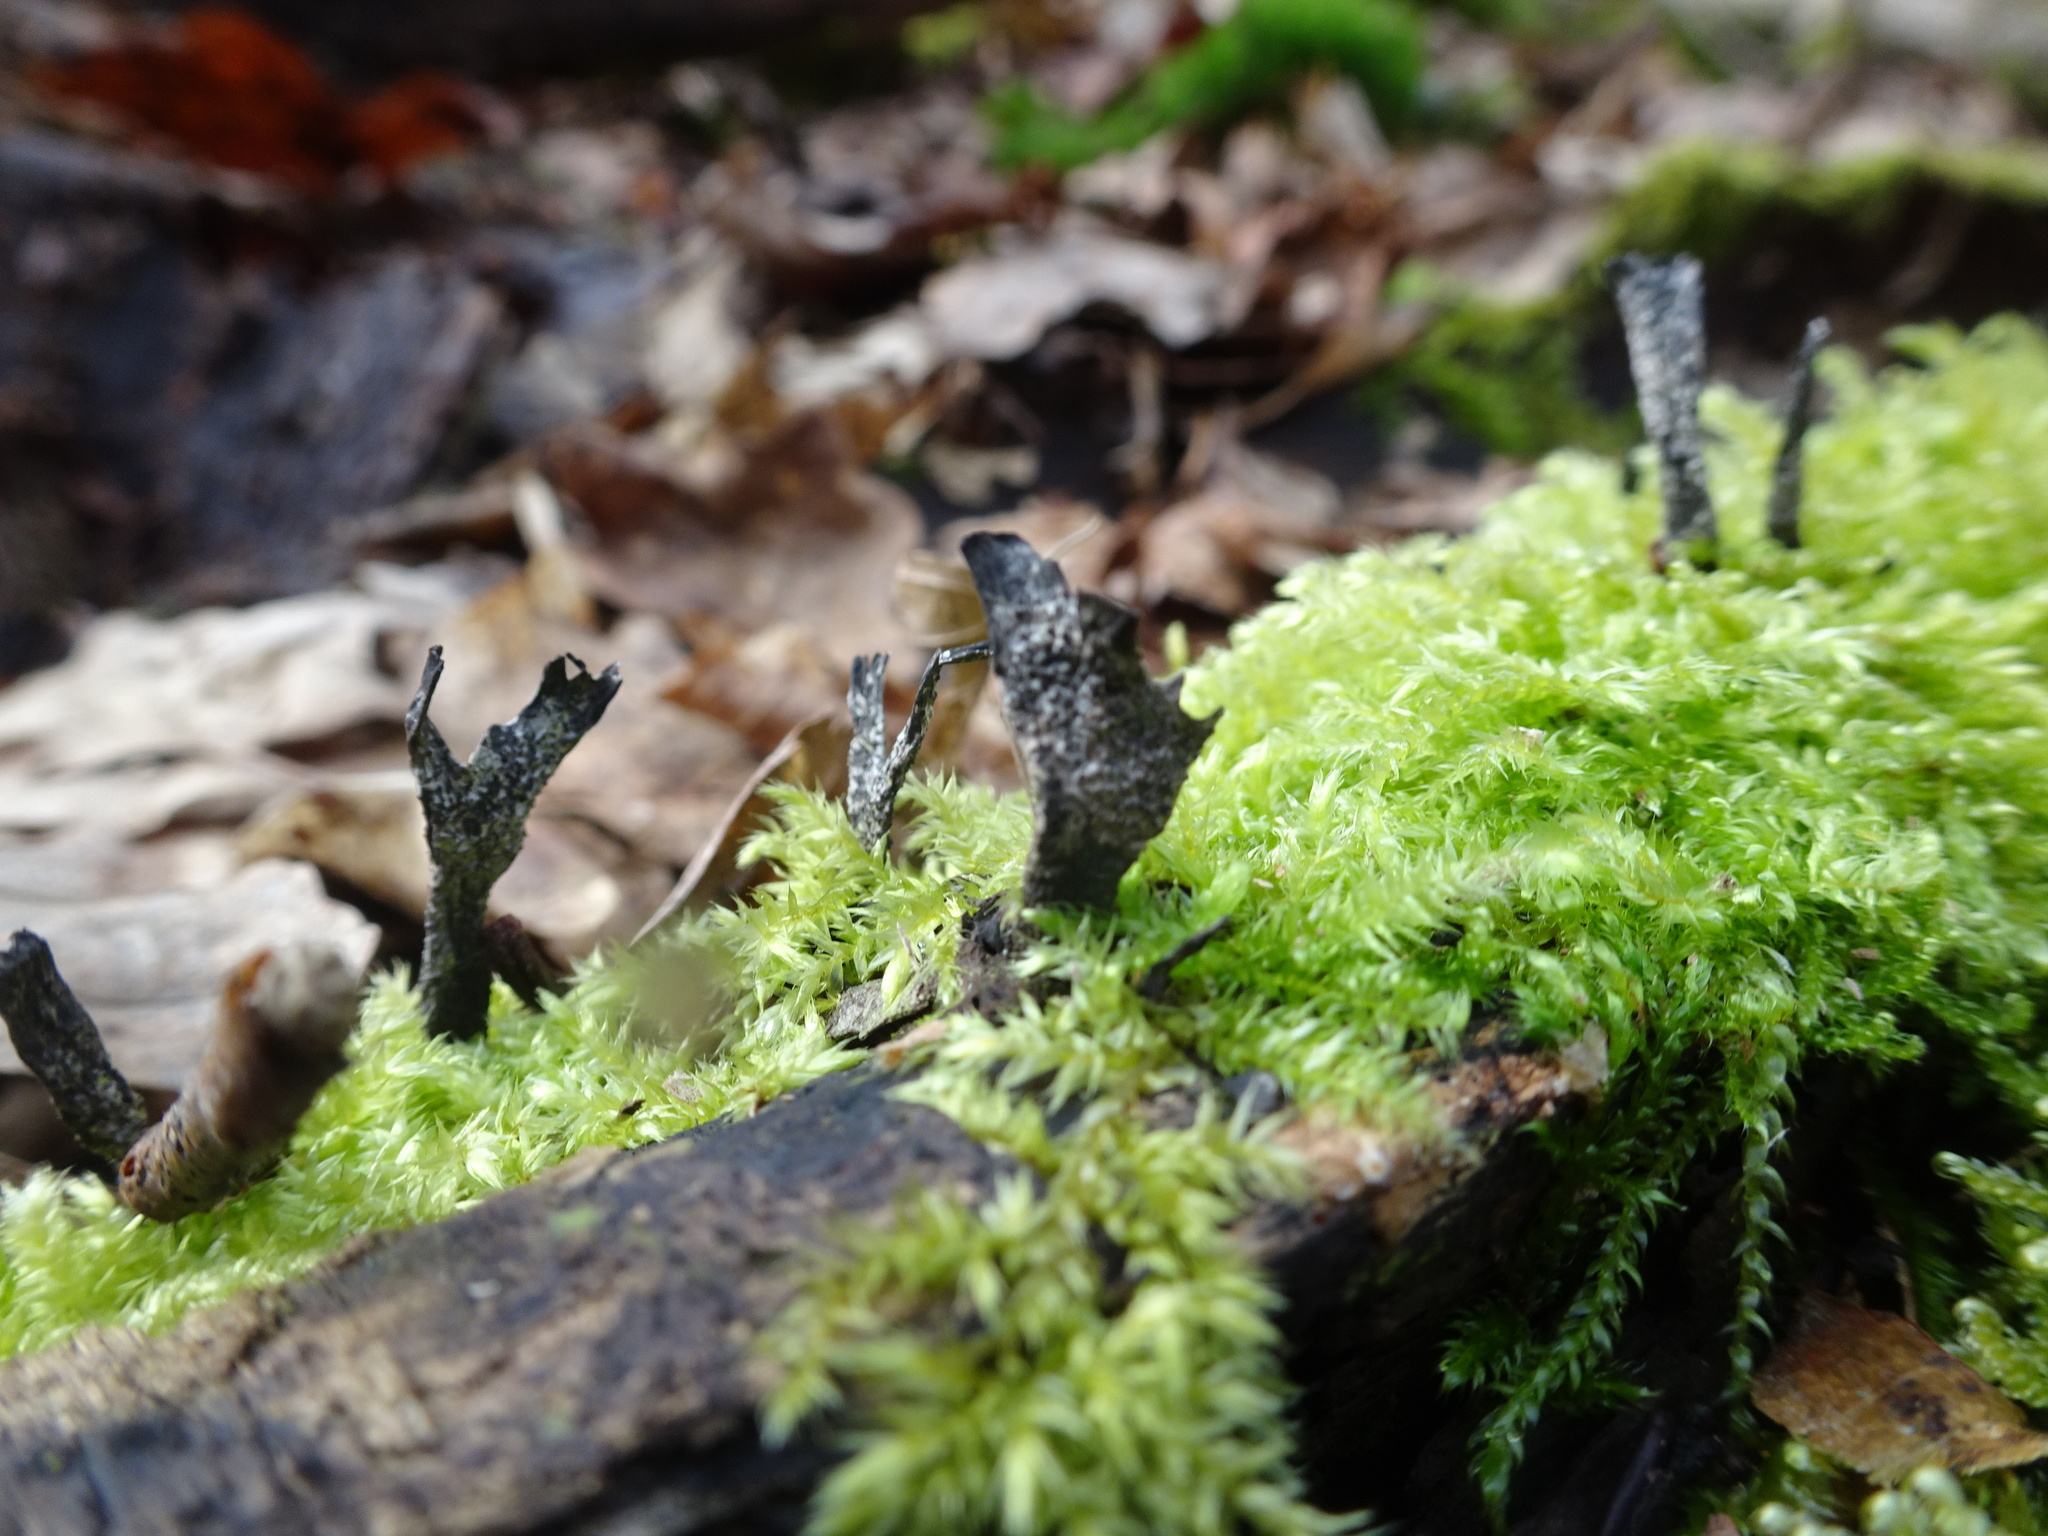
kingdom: Fungi
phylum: Ascomycota
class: Sordariomycetes
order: Xylariales
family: Xylariaceae
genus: Xylaria
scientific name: Xylaria hypoxylon
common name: Candle-snuff fungus
